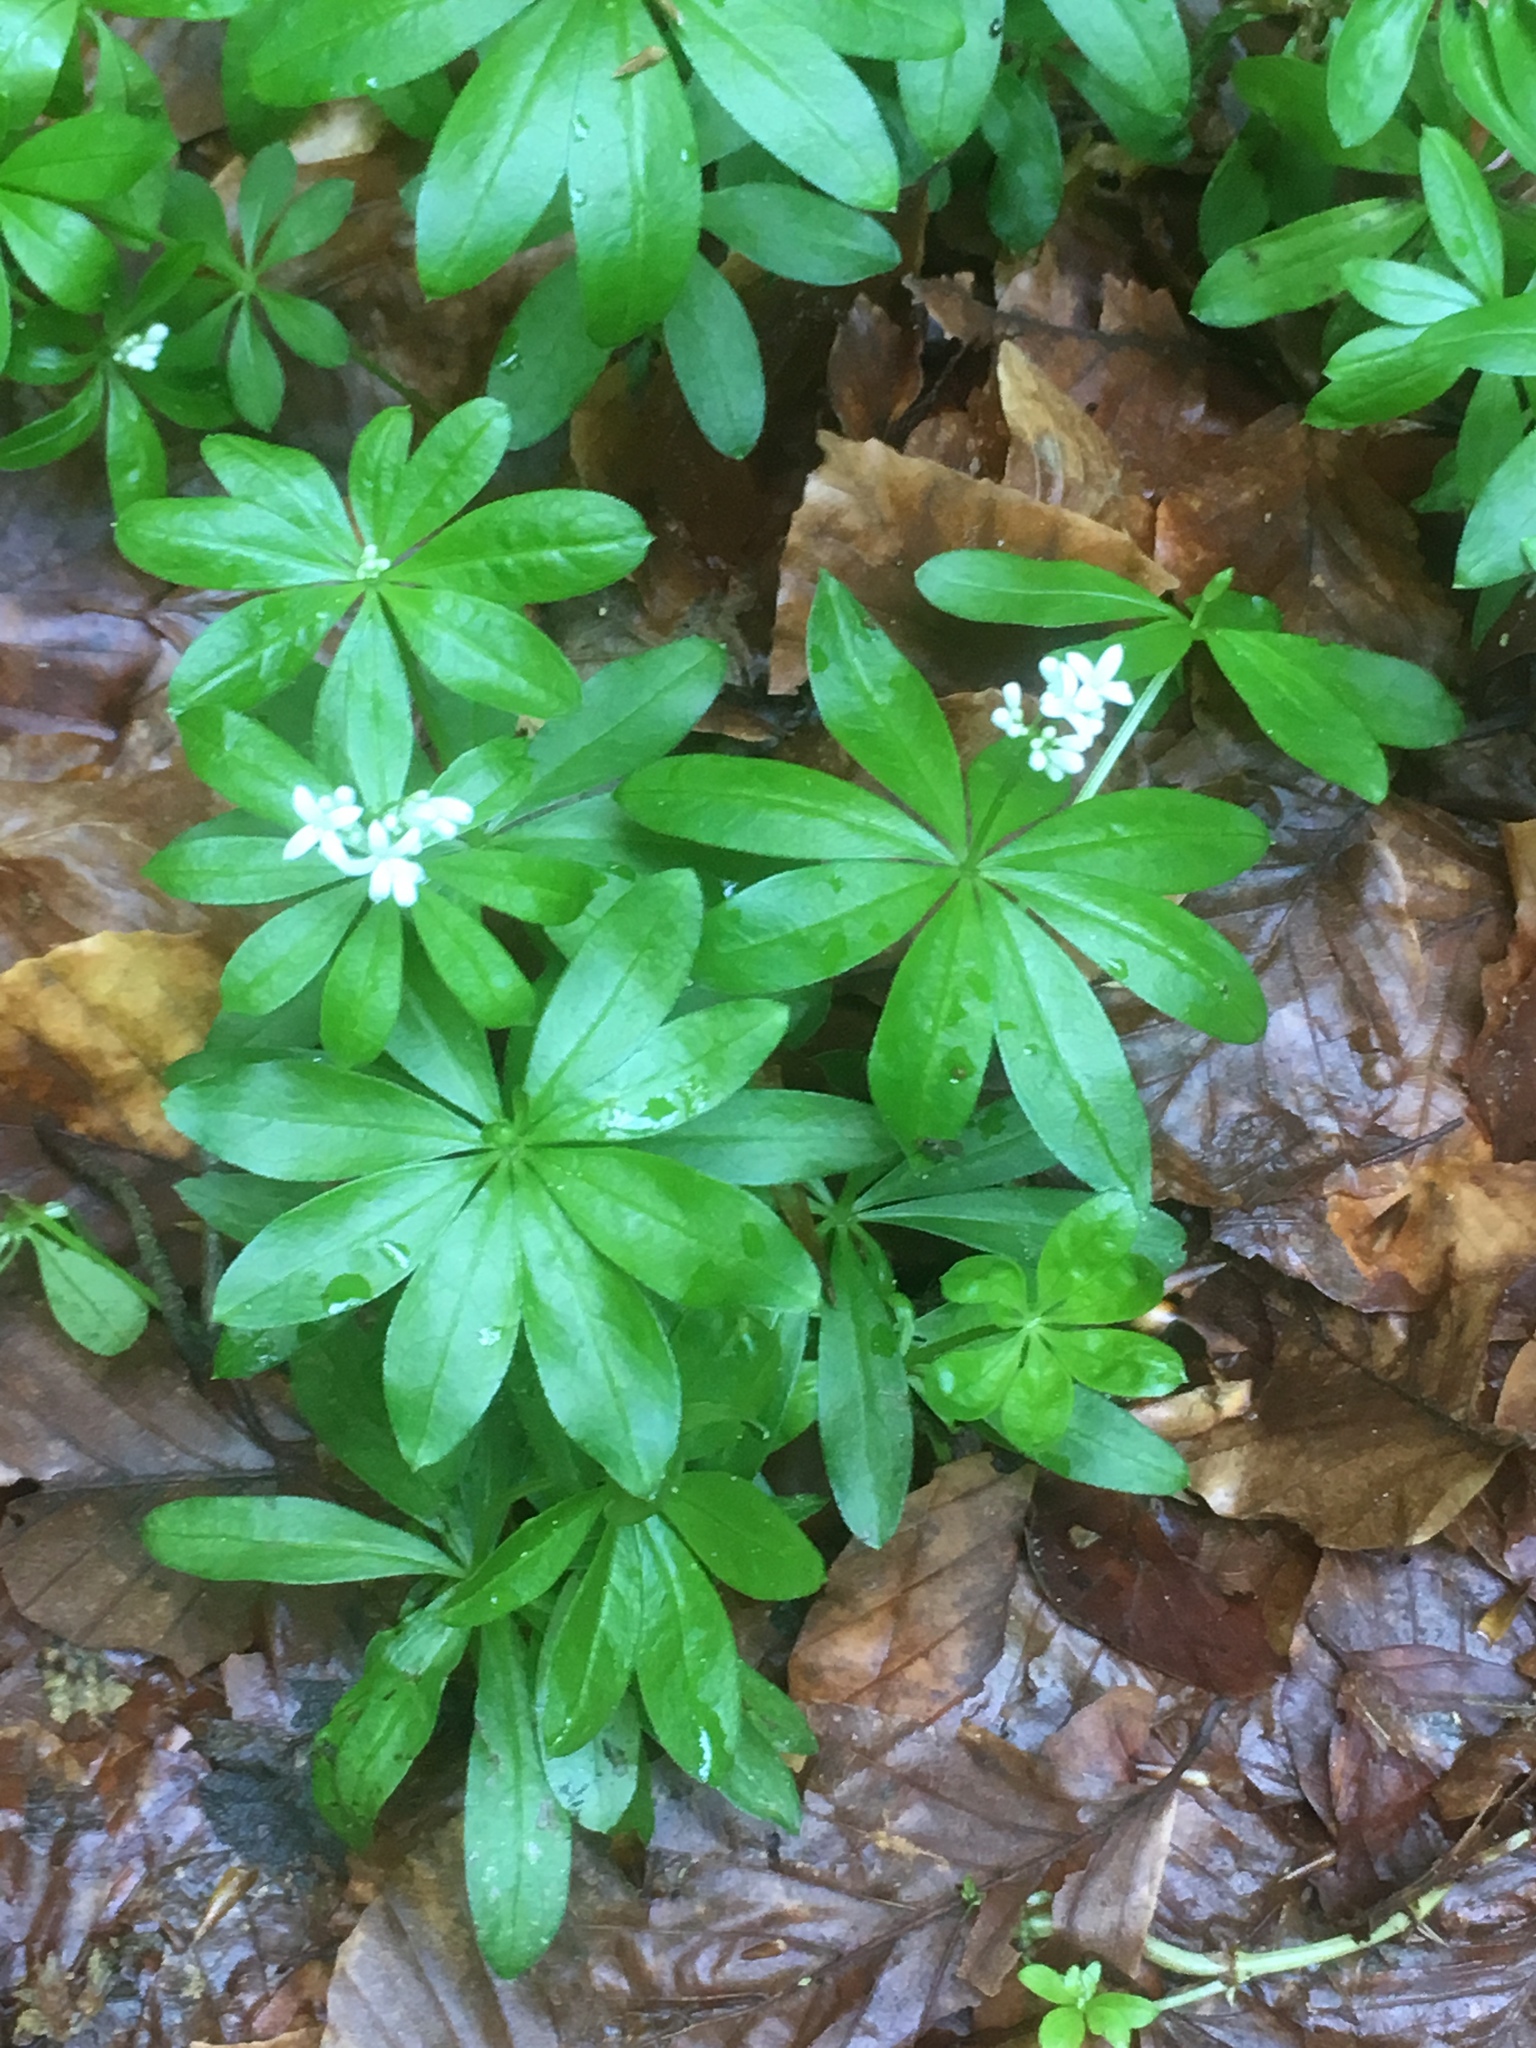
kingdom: Plantae
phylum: Tracheophyta
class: Magnoliopsida
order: Gentianales
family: Rubiaceae
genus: Galium
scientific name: Galium odoratum
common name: Sweet woodruff
